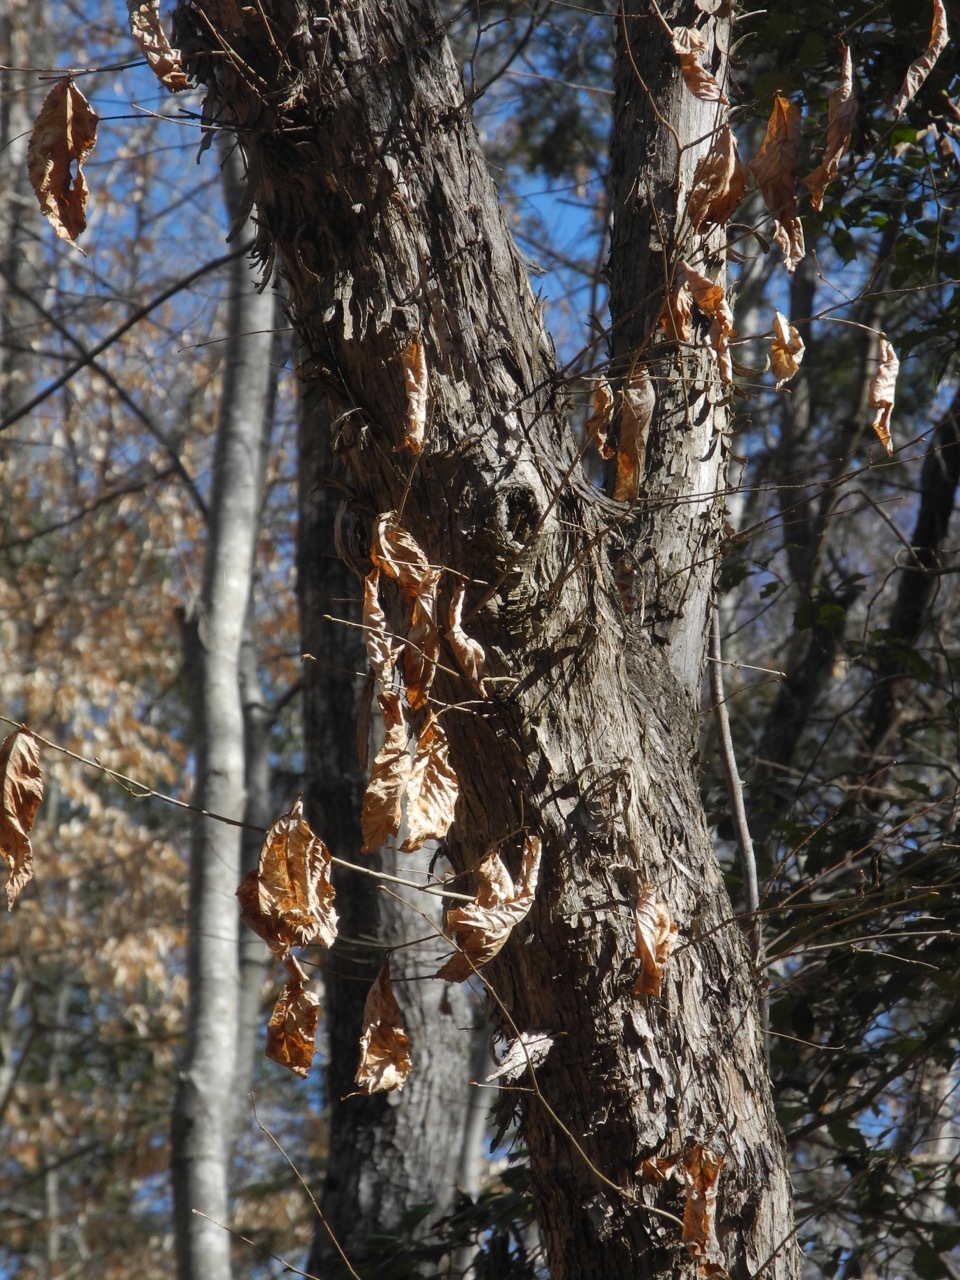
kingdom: Plantae
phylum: Tracheophyta
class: Magnoliopsida
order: Fagales
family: Betulaceae
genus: Ostrya
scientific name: Ostrya virginiana
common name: Ironwood
